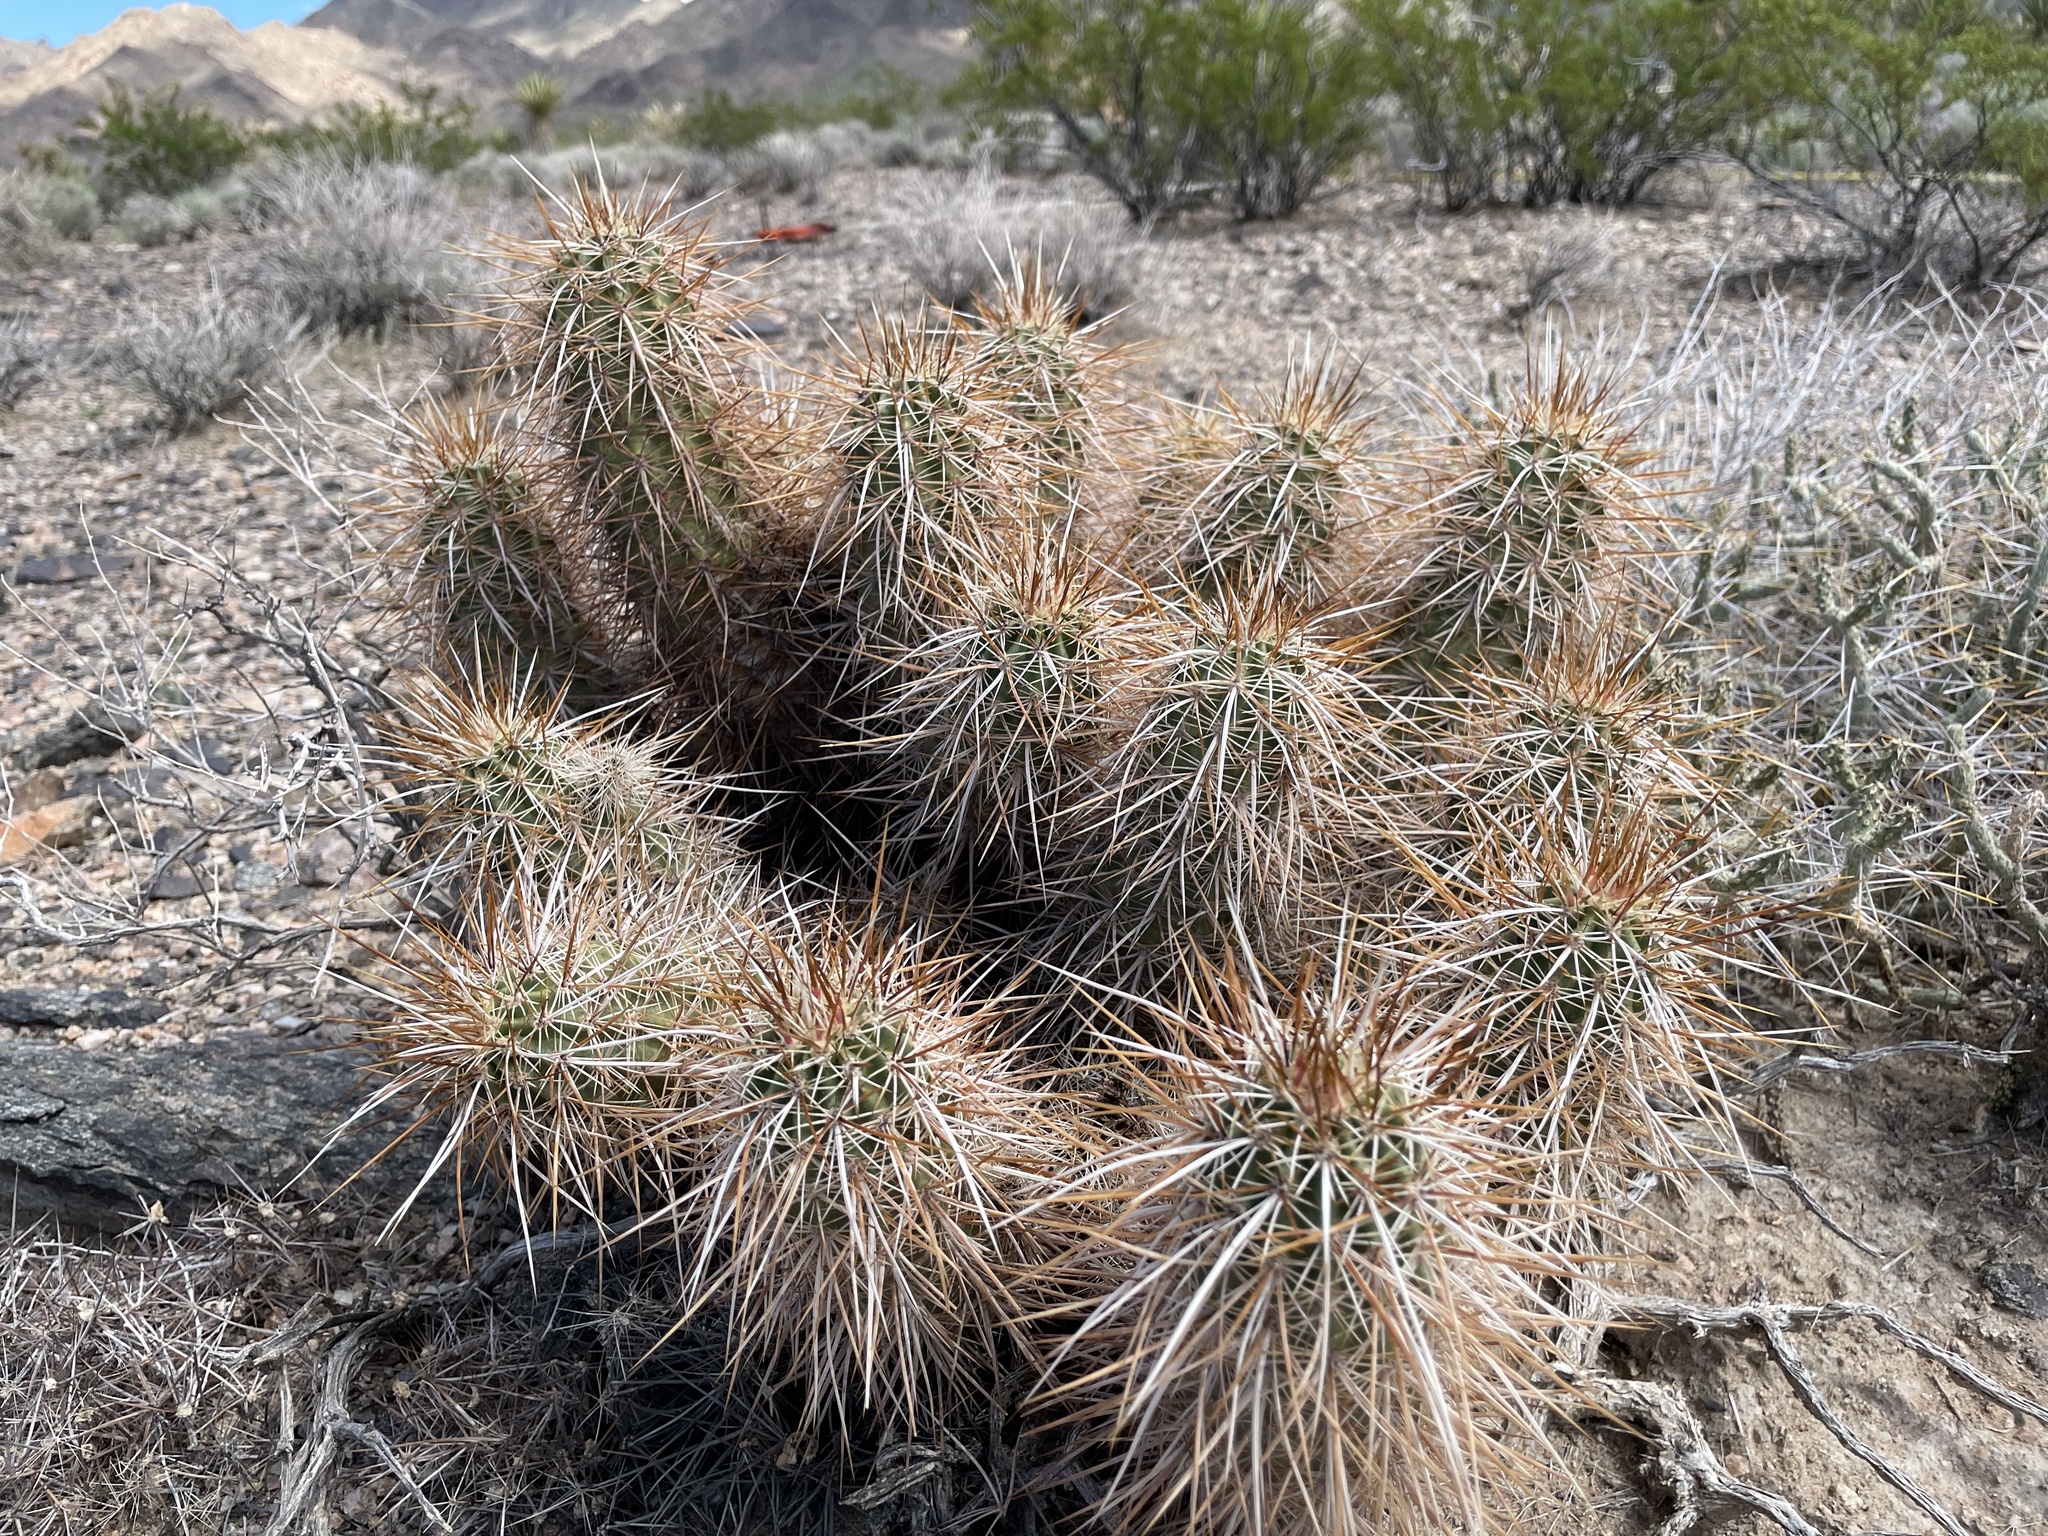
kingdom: Plantae
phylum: Tracheophyta
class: Magnoliopsida
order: Caryophyllales
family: Cactaceae
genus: Echinocereus
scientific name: Echinocereus engelmannii
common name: Engelmann's hedgehog cactus
